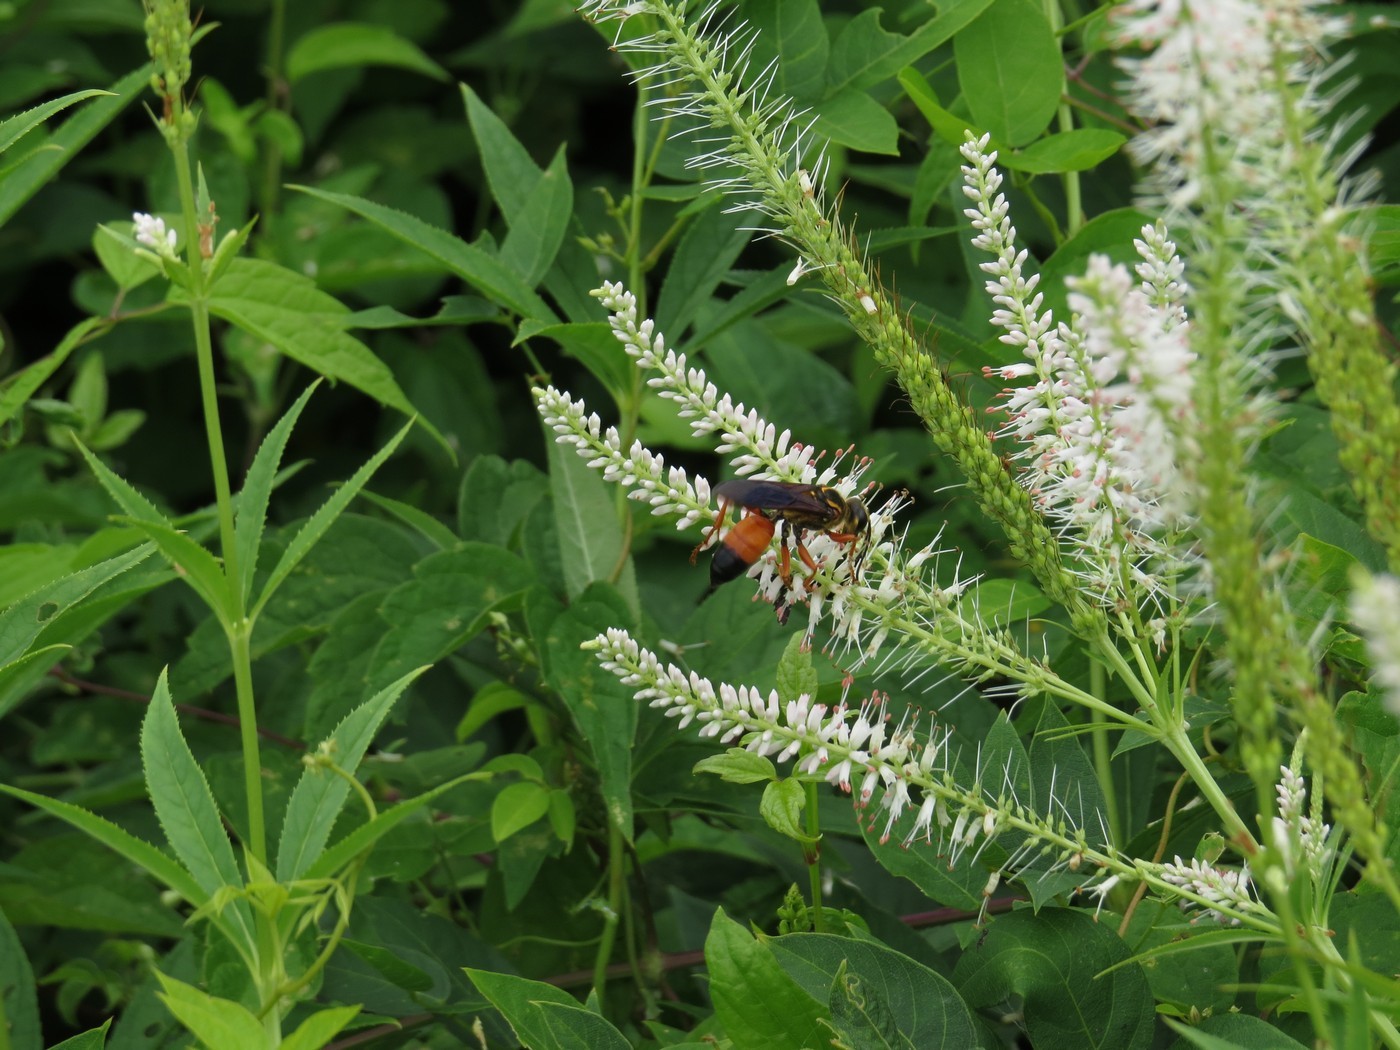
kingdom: Animalia
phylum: Arthropoda
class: Insecta
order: Hymenoptera
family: Sphecidae
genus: Sphex
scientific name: Sphex ichneumoneus
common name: Great golden digger wasp
